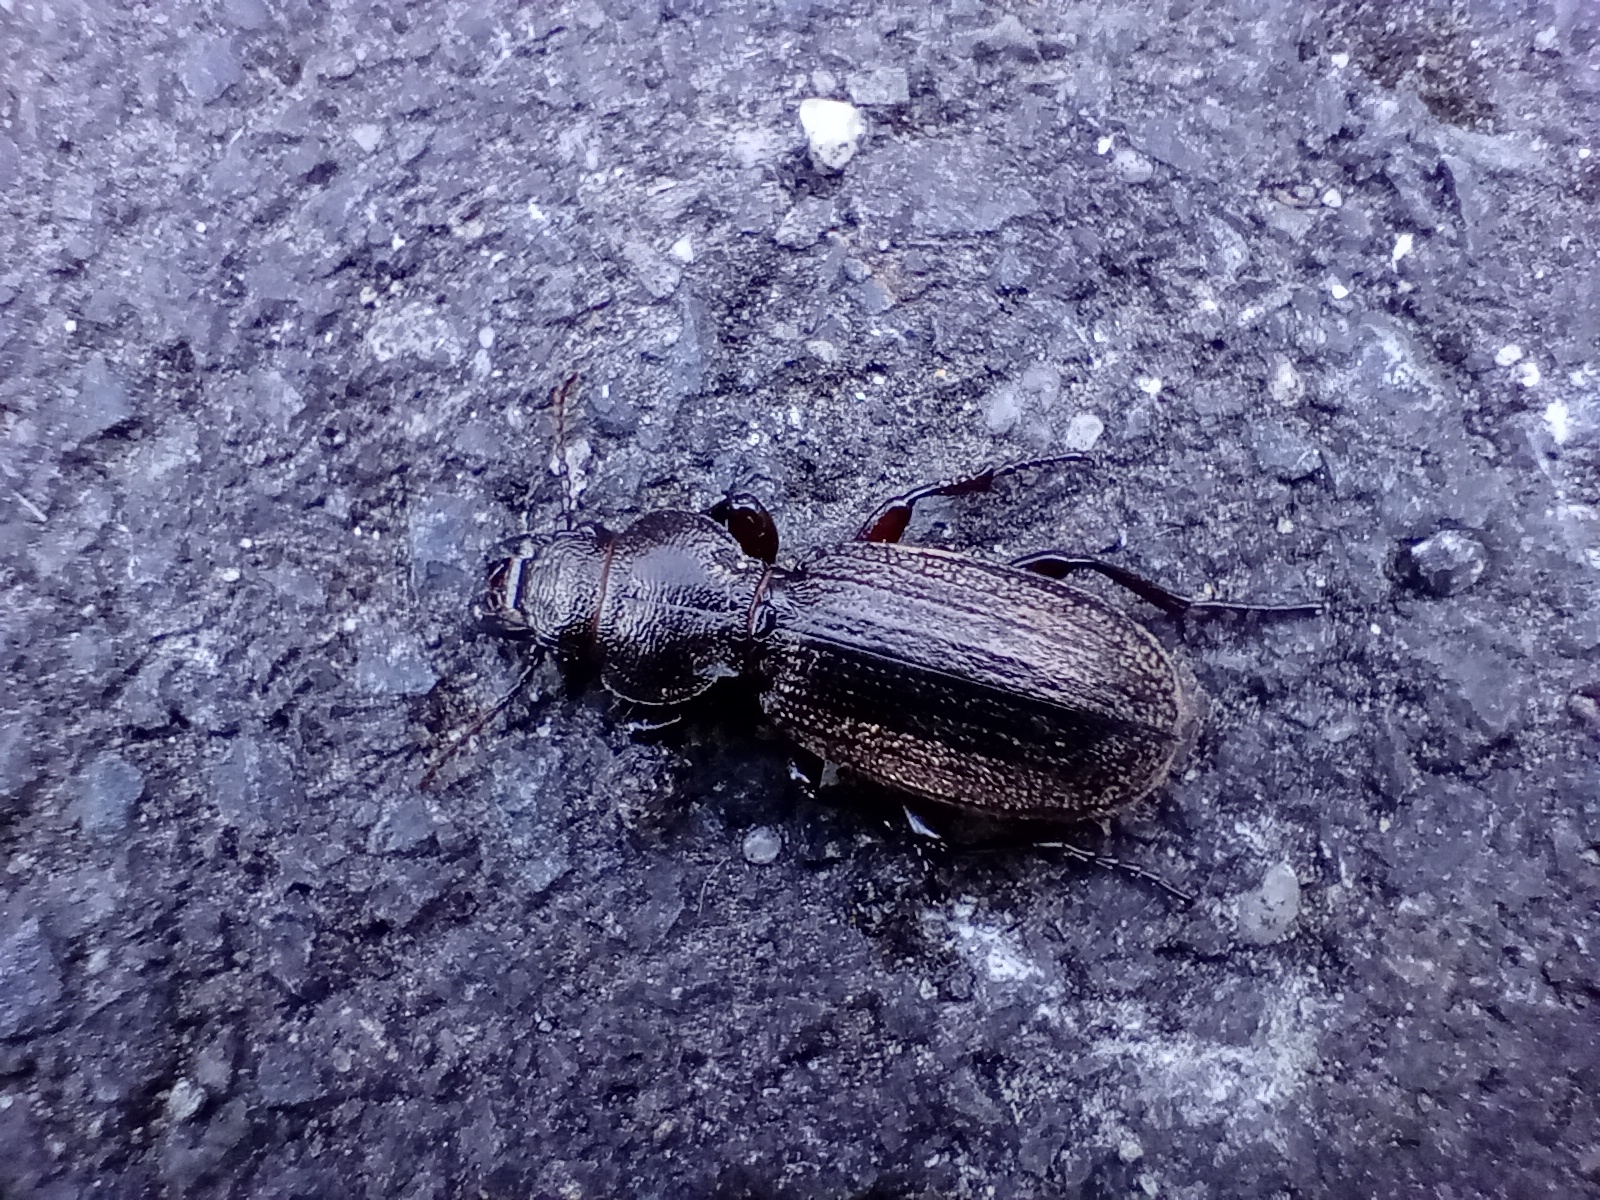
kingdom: Animalia
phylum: Arthropoda
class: Insecta
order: Coleoptera
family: Carabidae
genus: Mecodema
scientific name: Mecodema sculpturatum
